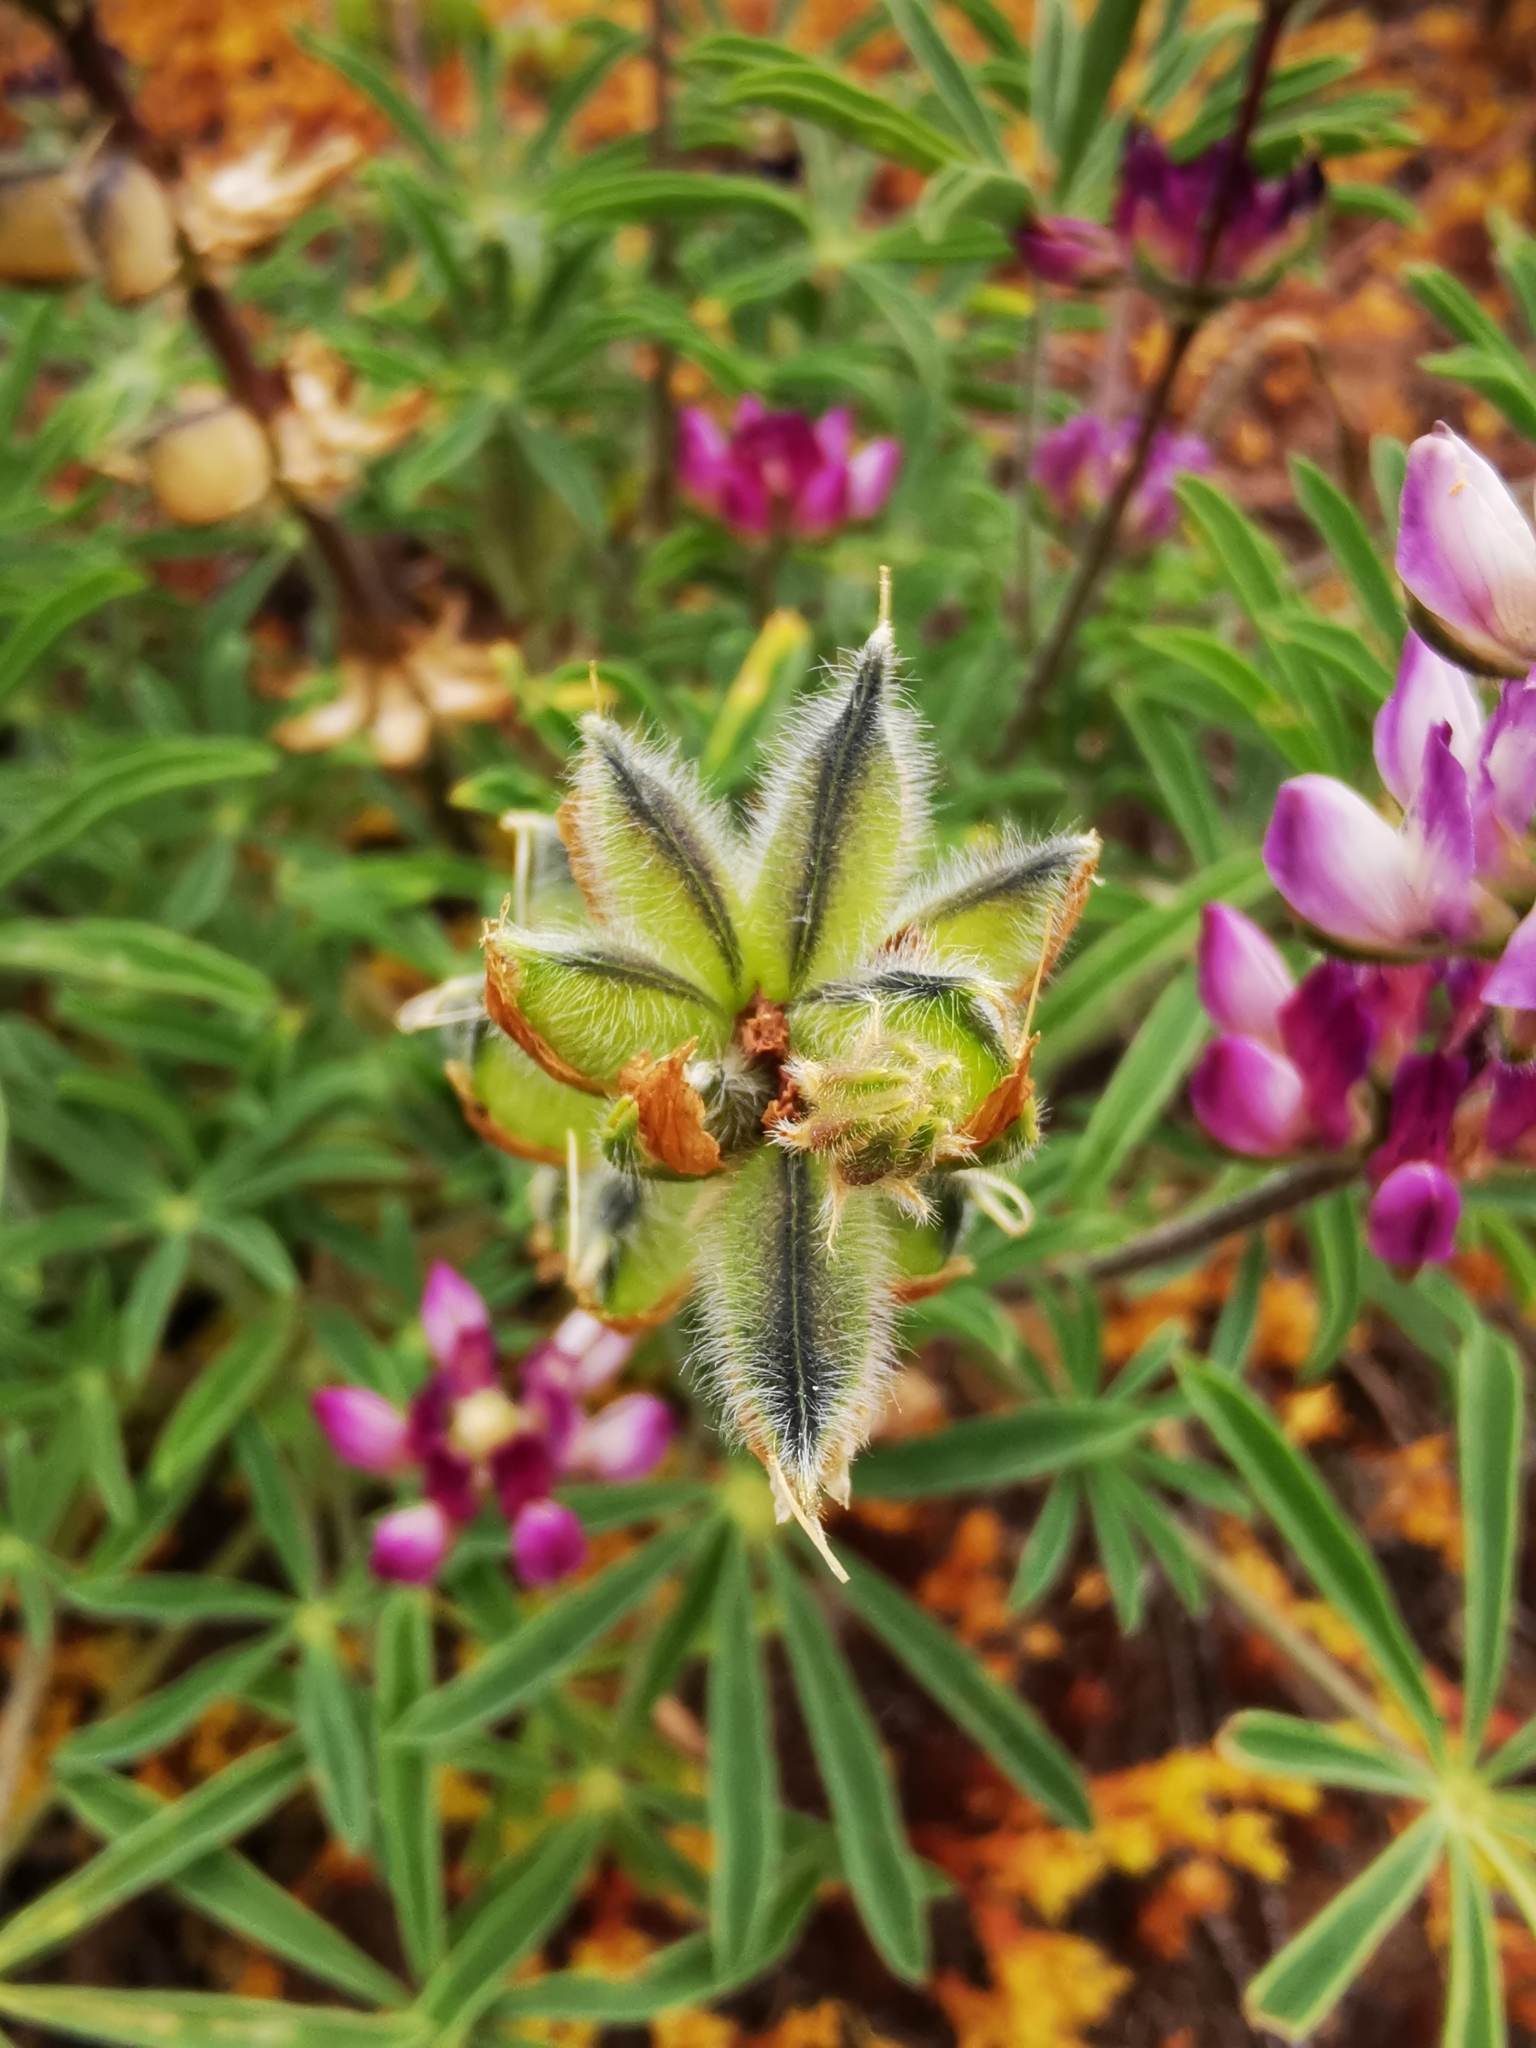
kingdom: Plantae
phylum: Tracheophyta
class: Magnoliopsida
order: Fabales
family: Fabaceae
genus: Lupinus
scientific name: Lupinus microcarpus
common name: Chick lupine
